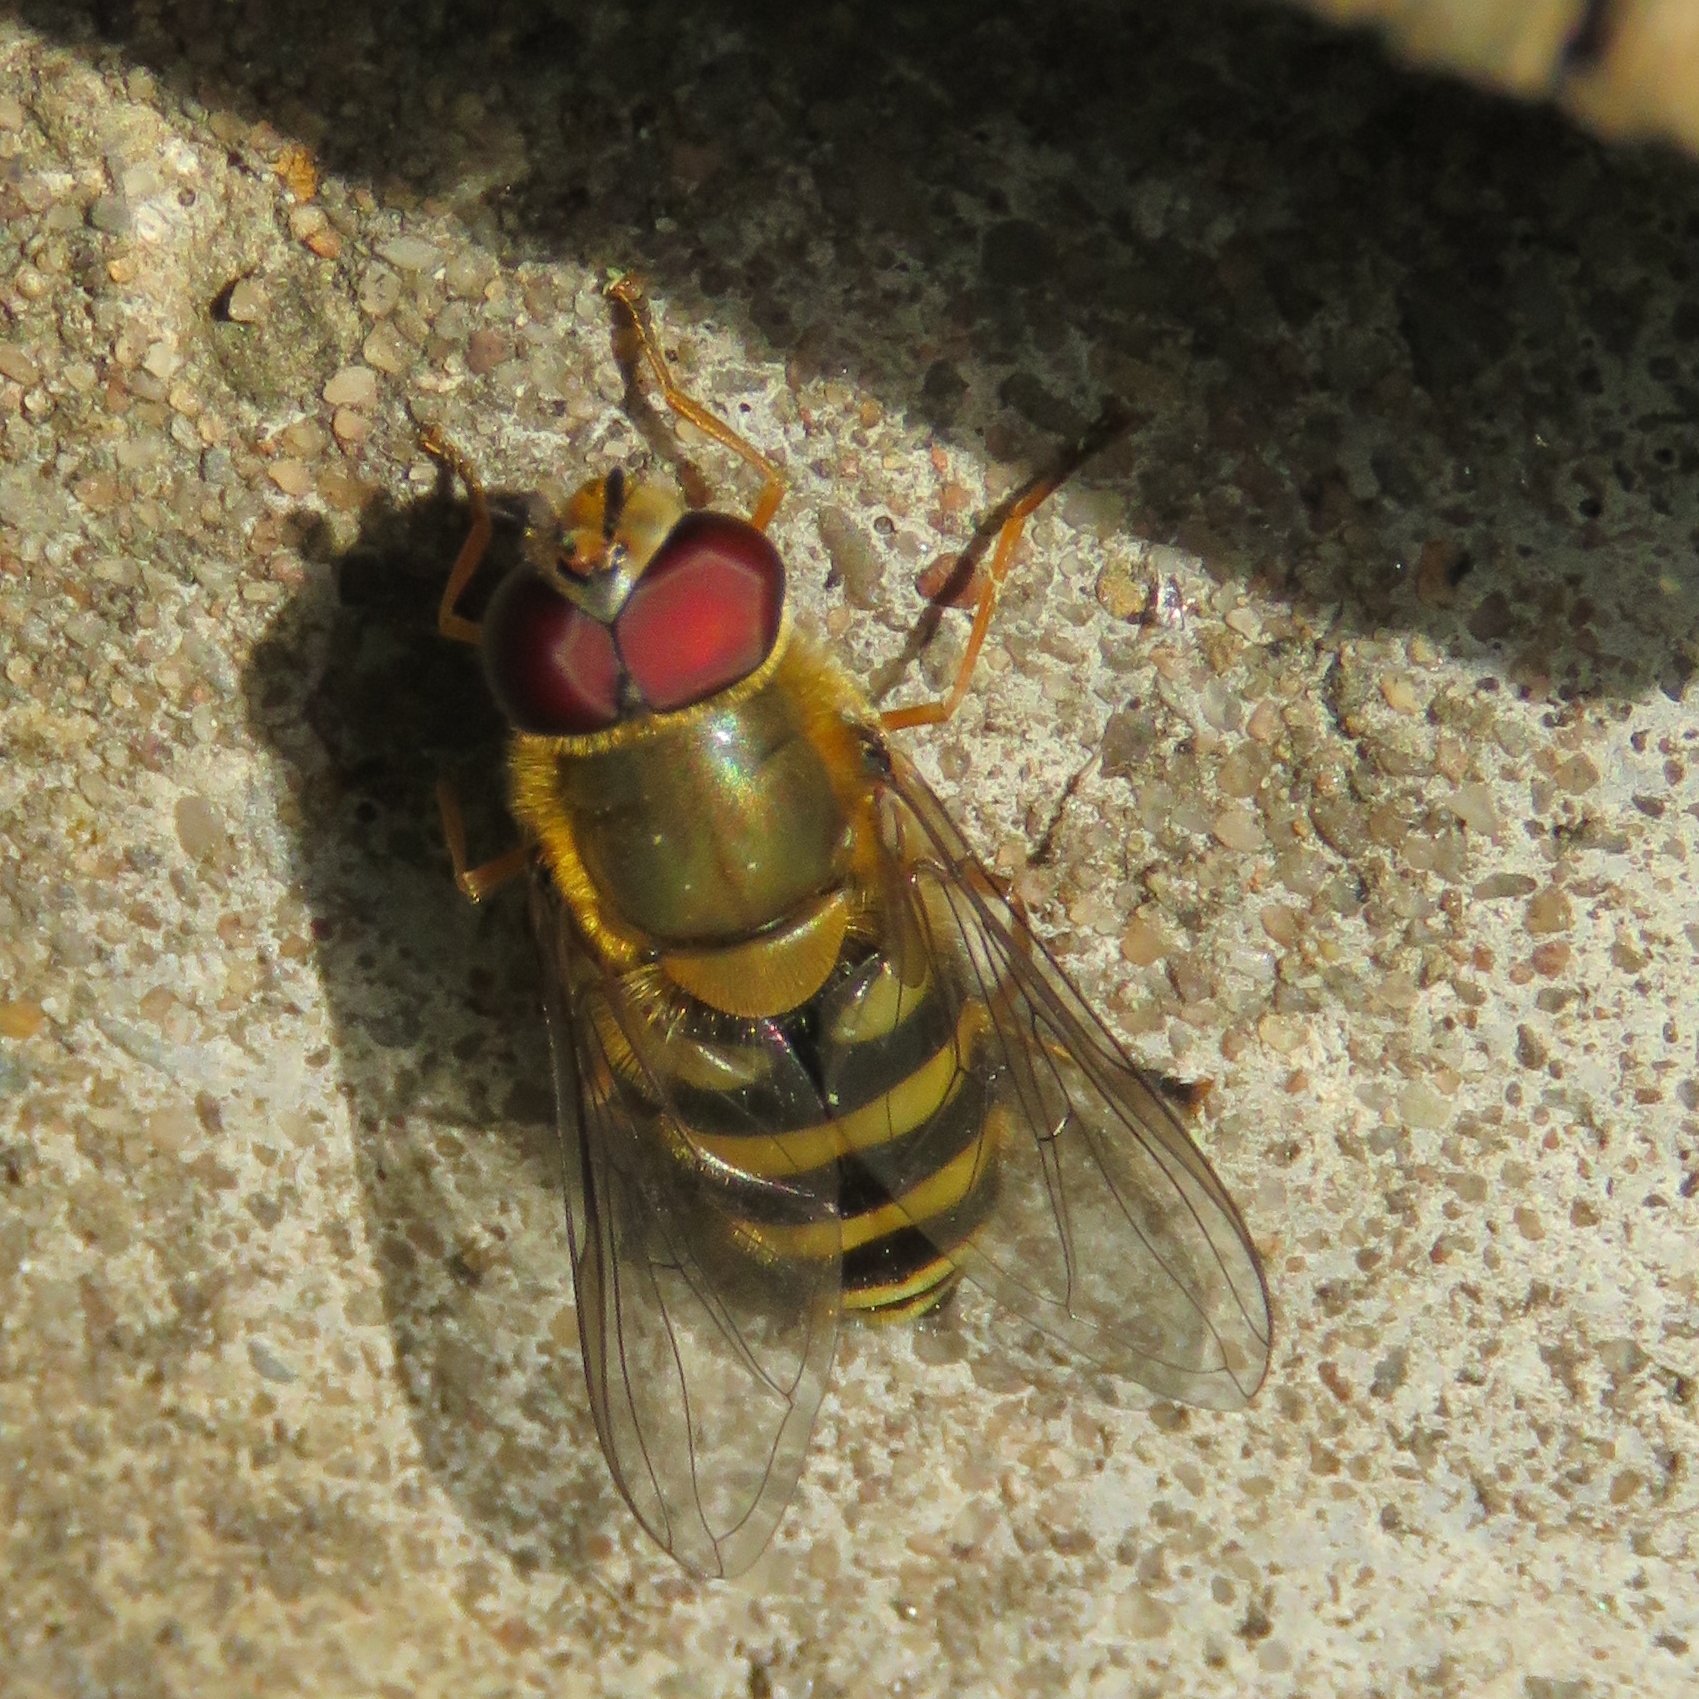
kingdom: Animalia
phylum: Arthropoda
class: Insecta
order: Diptera
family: Syrphidae
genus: Syrphus
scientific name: Syrphus
